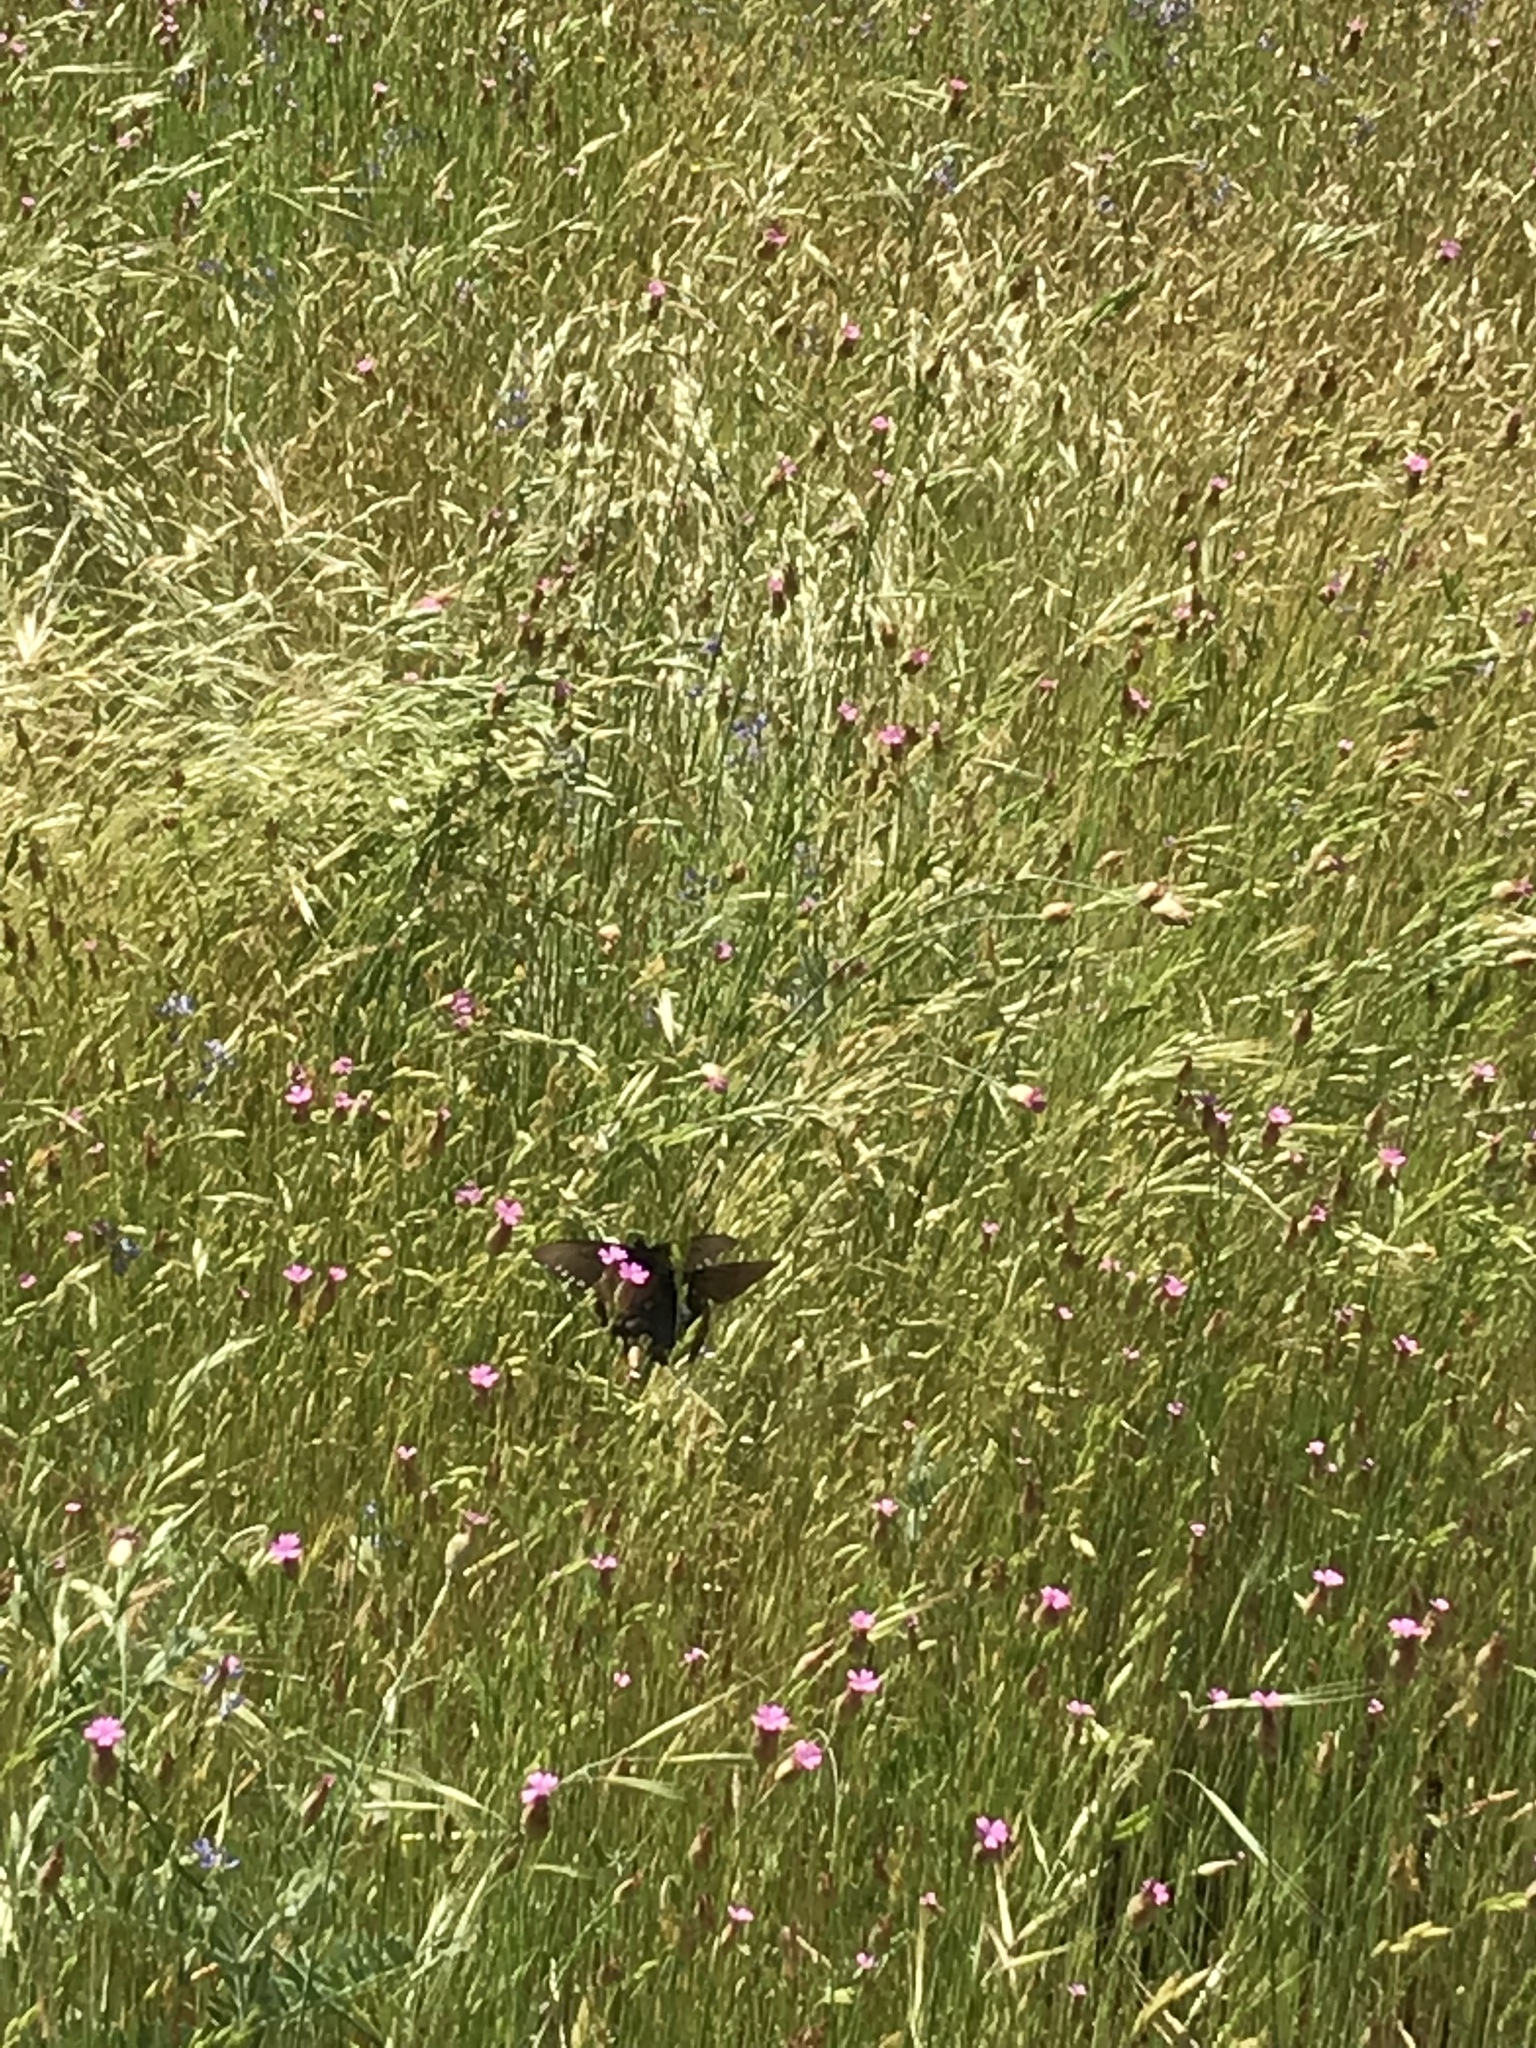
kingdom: Animalia
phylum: Arthropoda
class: Insecta
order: Lepidoptera
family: Papilionidae
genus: Battus
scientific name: Battus philenor
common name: Pipevine swallowtail
